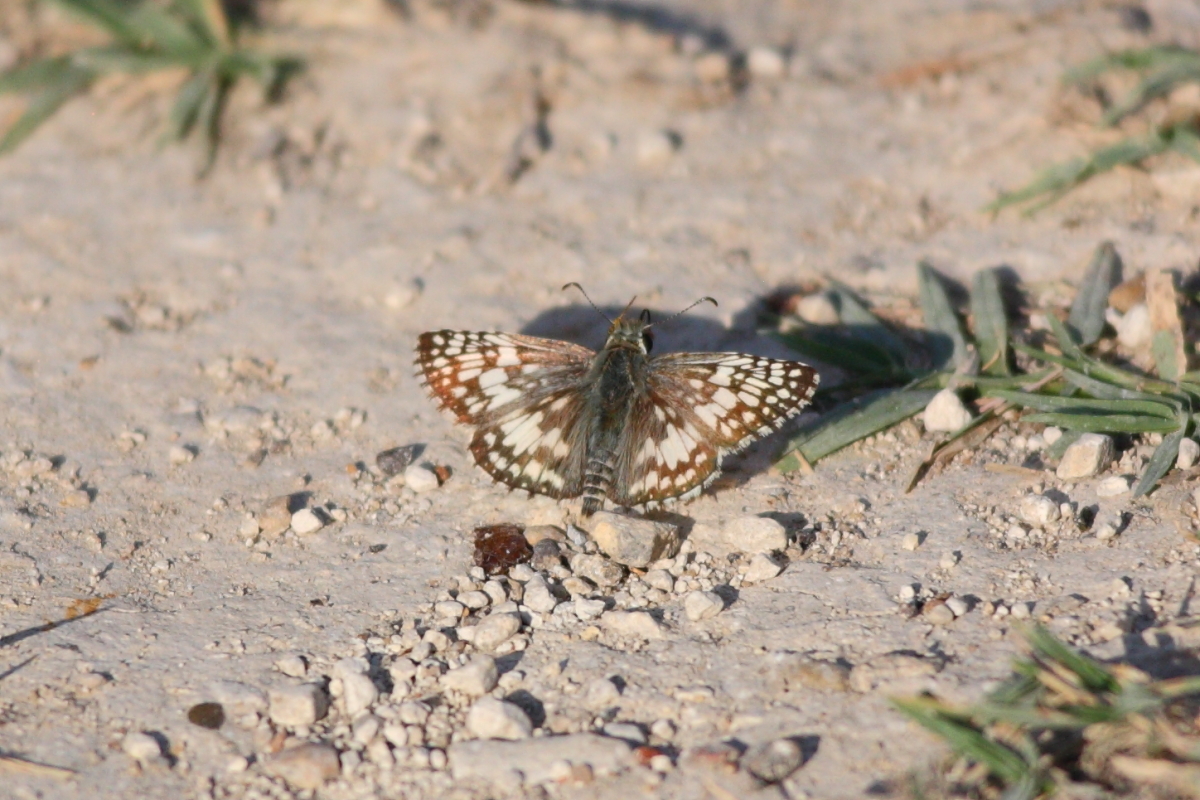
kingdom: Animalia
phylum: Arthropoda
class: Insecta
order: Lepidoptera
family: Hesperiidae
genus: Burnsius
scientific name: Burnsius communis
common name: Common checkered-skipper
